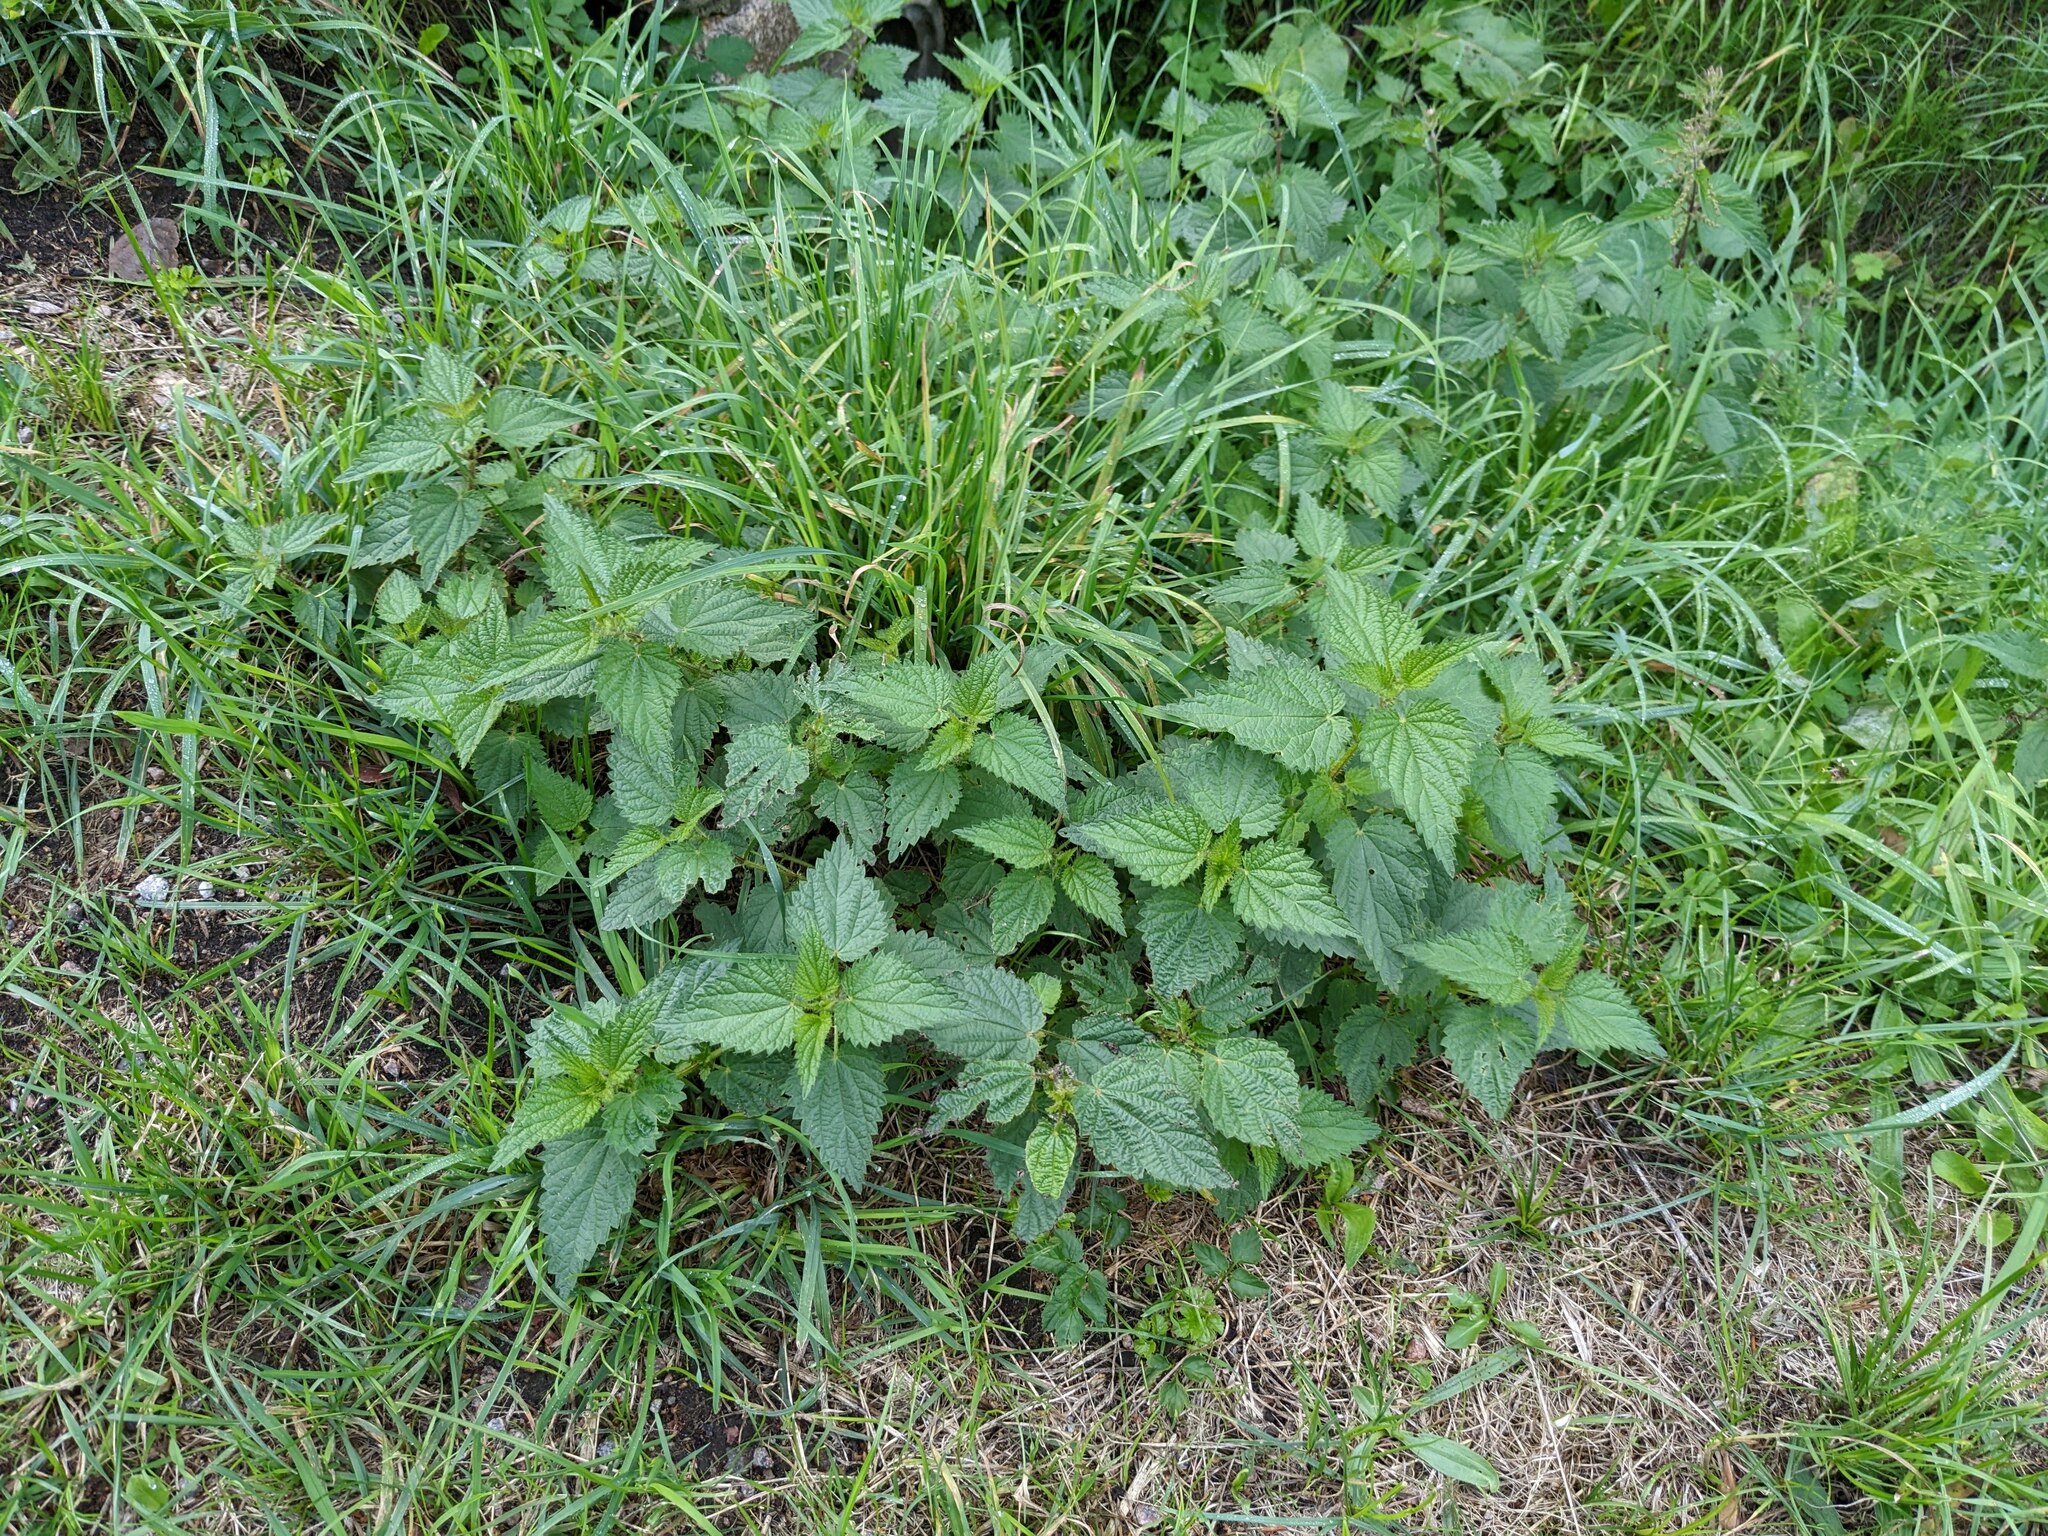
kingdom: Plantae
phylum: Tracheophyta
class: Magnoliopsida
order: Rosales
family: Urticaceae
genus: Urtica
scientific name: Urtica dioica
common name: Common nettle
